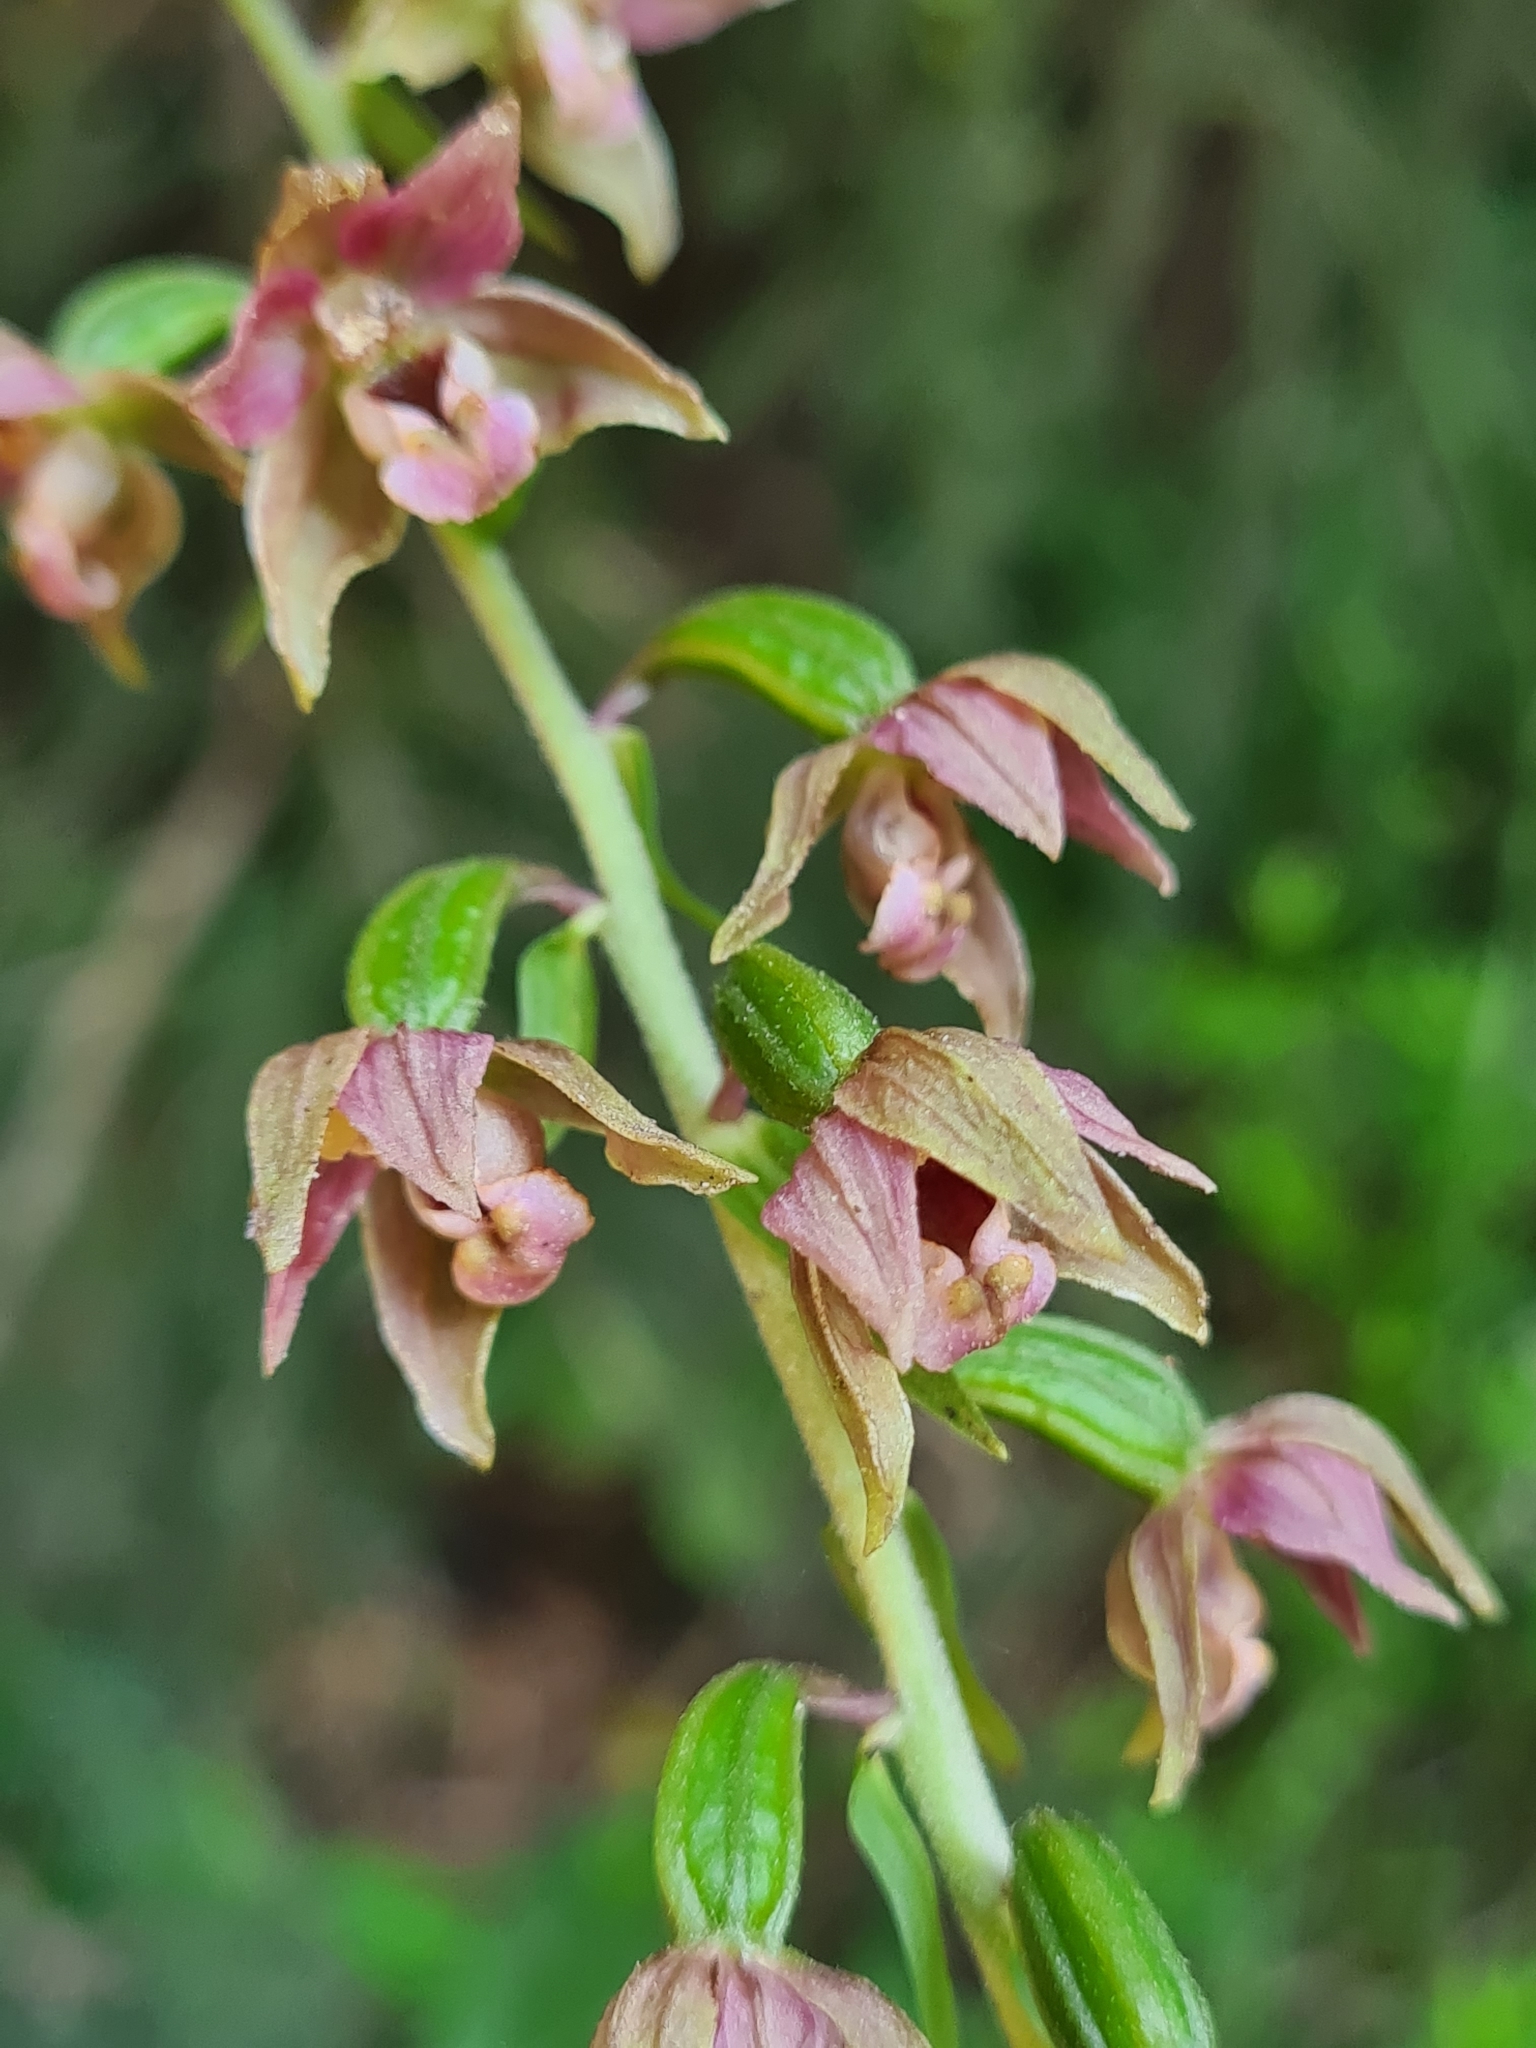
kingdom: Plantae
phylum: Tracheophyta
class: Liliopsida
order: Asparagales
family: Orchidaceae
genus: Epipactis
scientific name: Epipactis helleborine
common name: Broad-leaved helleborine
